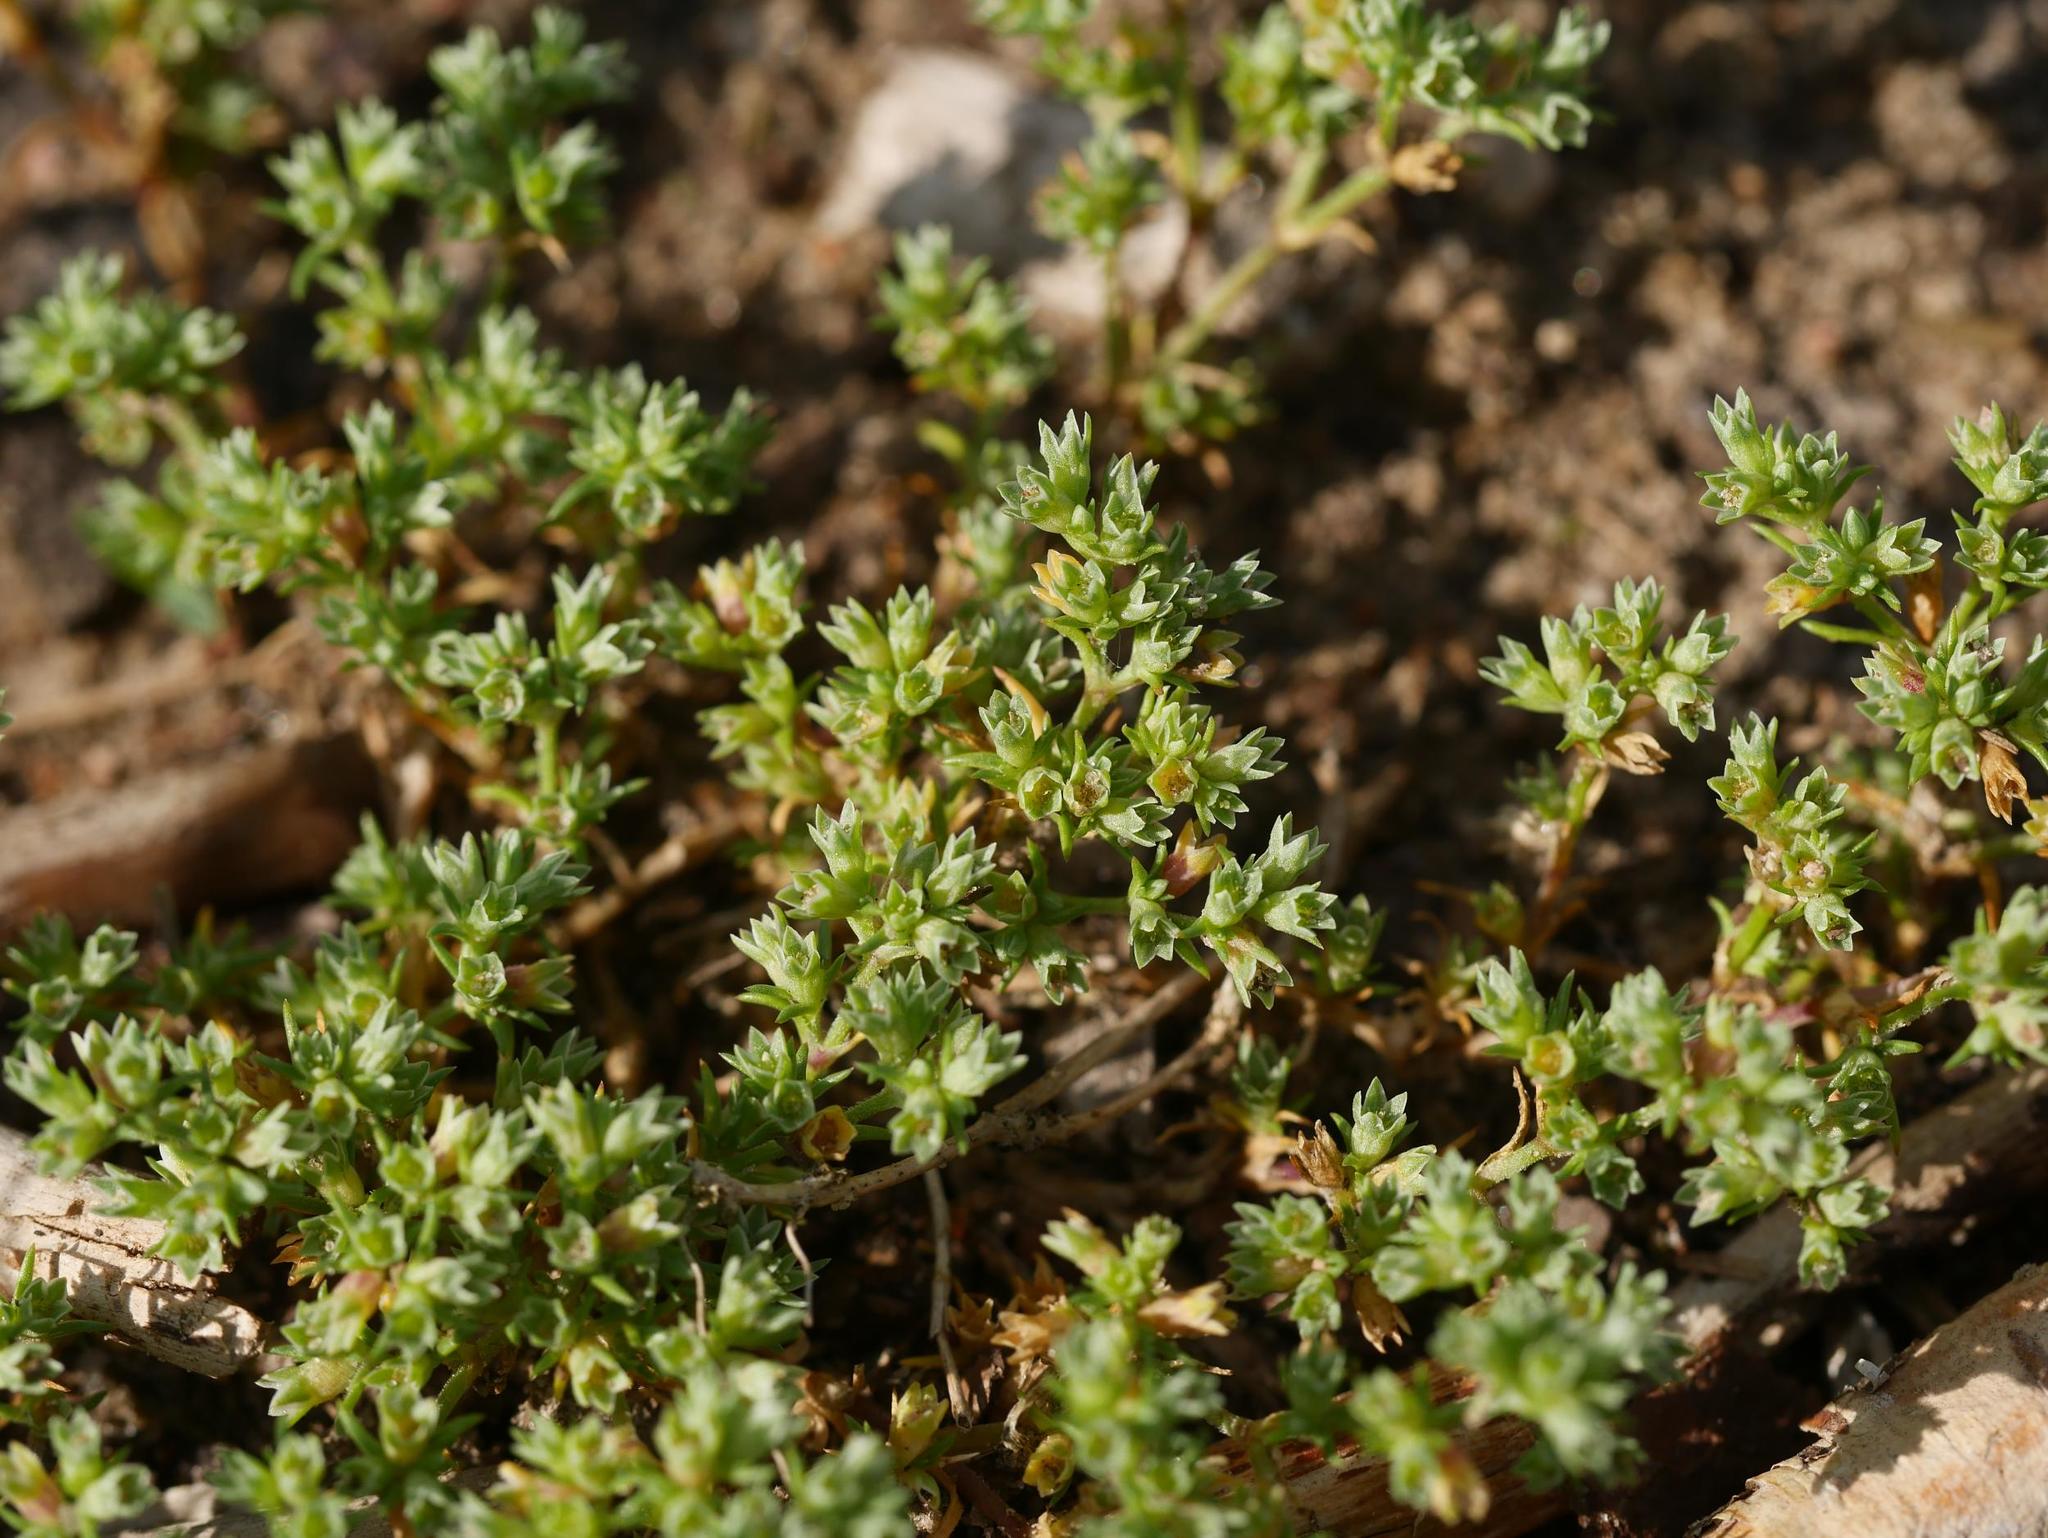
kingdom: Plantae
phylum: Tracheophyta
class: Magnoliopsida
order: Caryophyllales
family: Caryophyllaceae
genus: Scleranthus
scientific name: Scleranthus annuus
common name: Annual knawel
